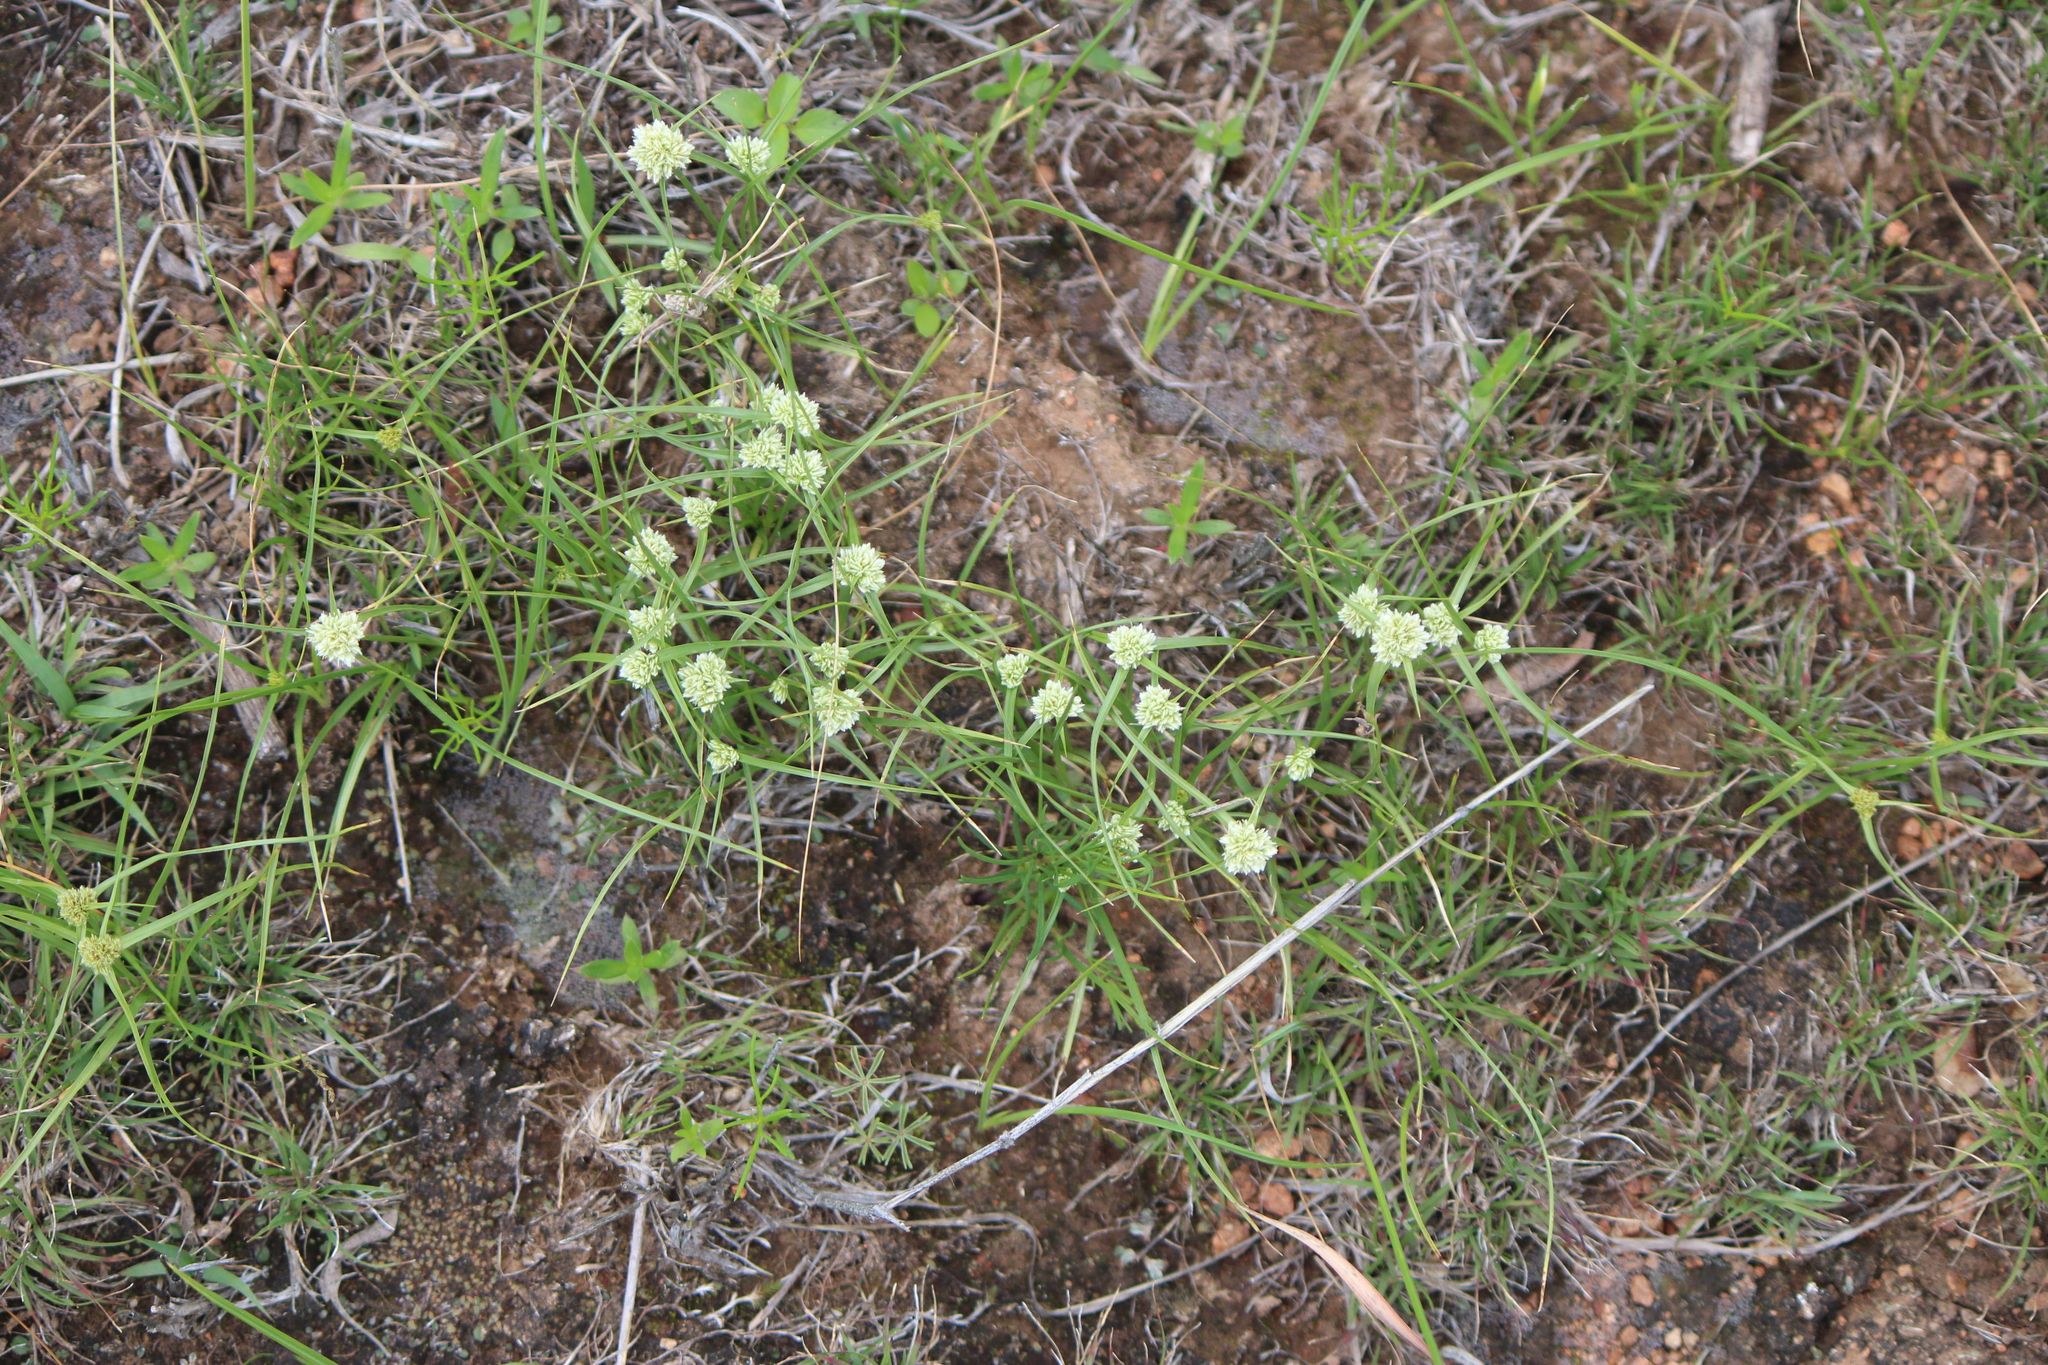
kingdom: Plantae
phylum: Tracheophyta
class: Liliopsida
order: Poales
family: Cyperaceae
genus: Cyperus
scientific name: Cyperus seslerioides
